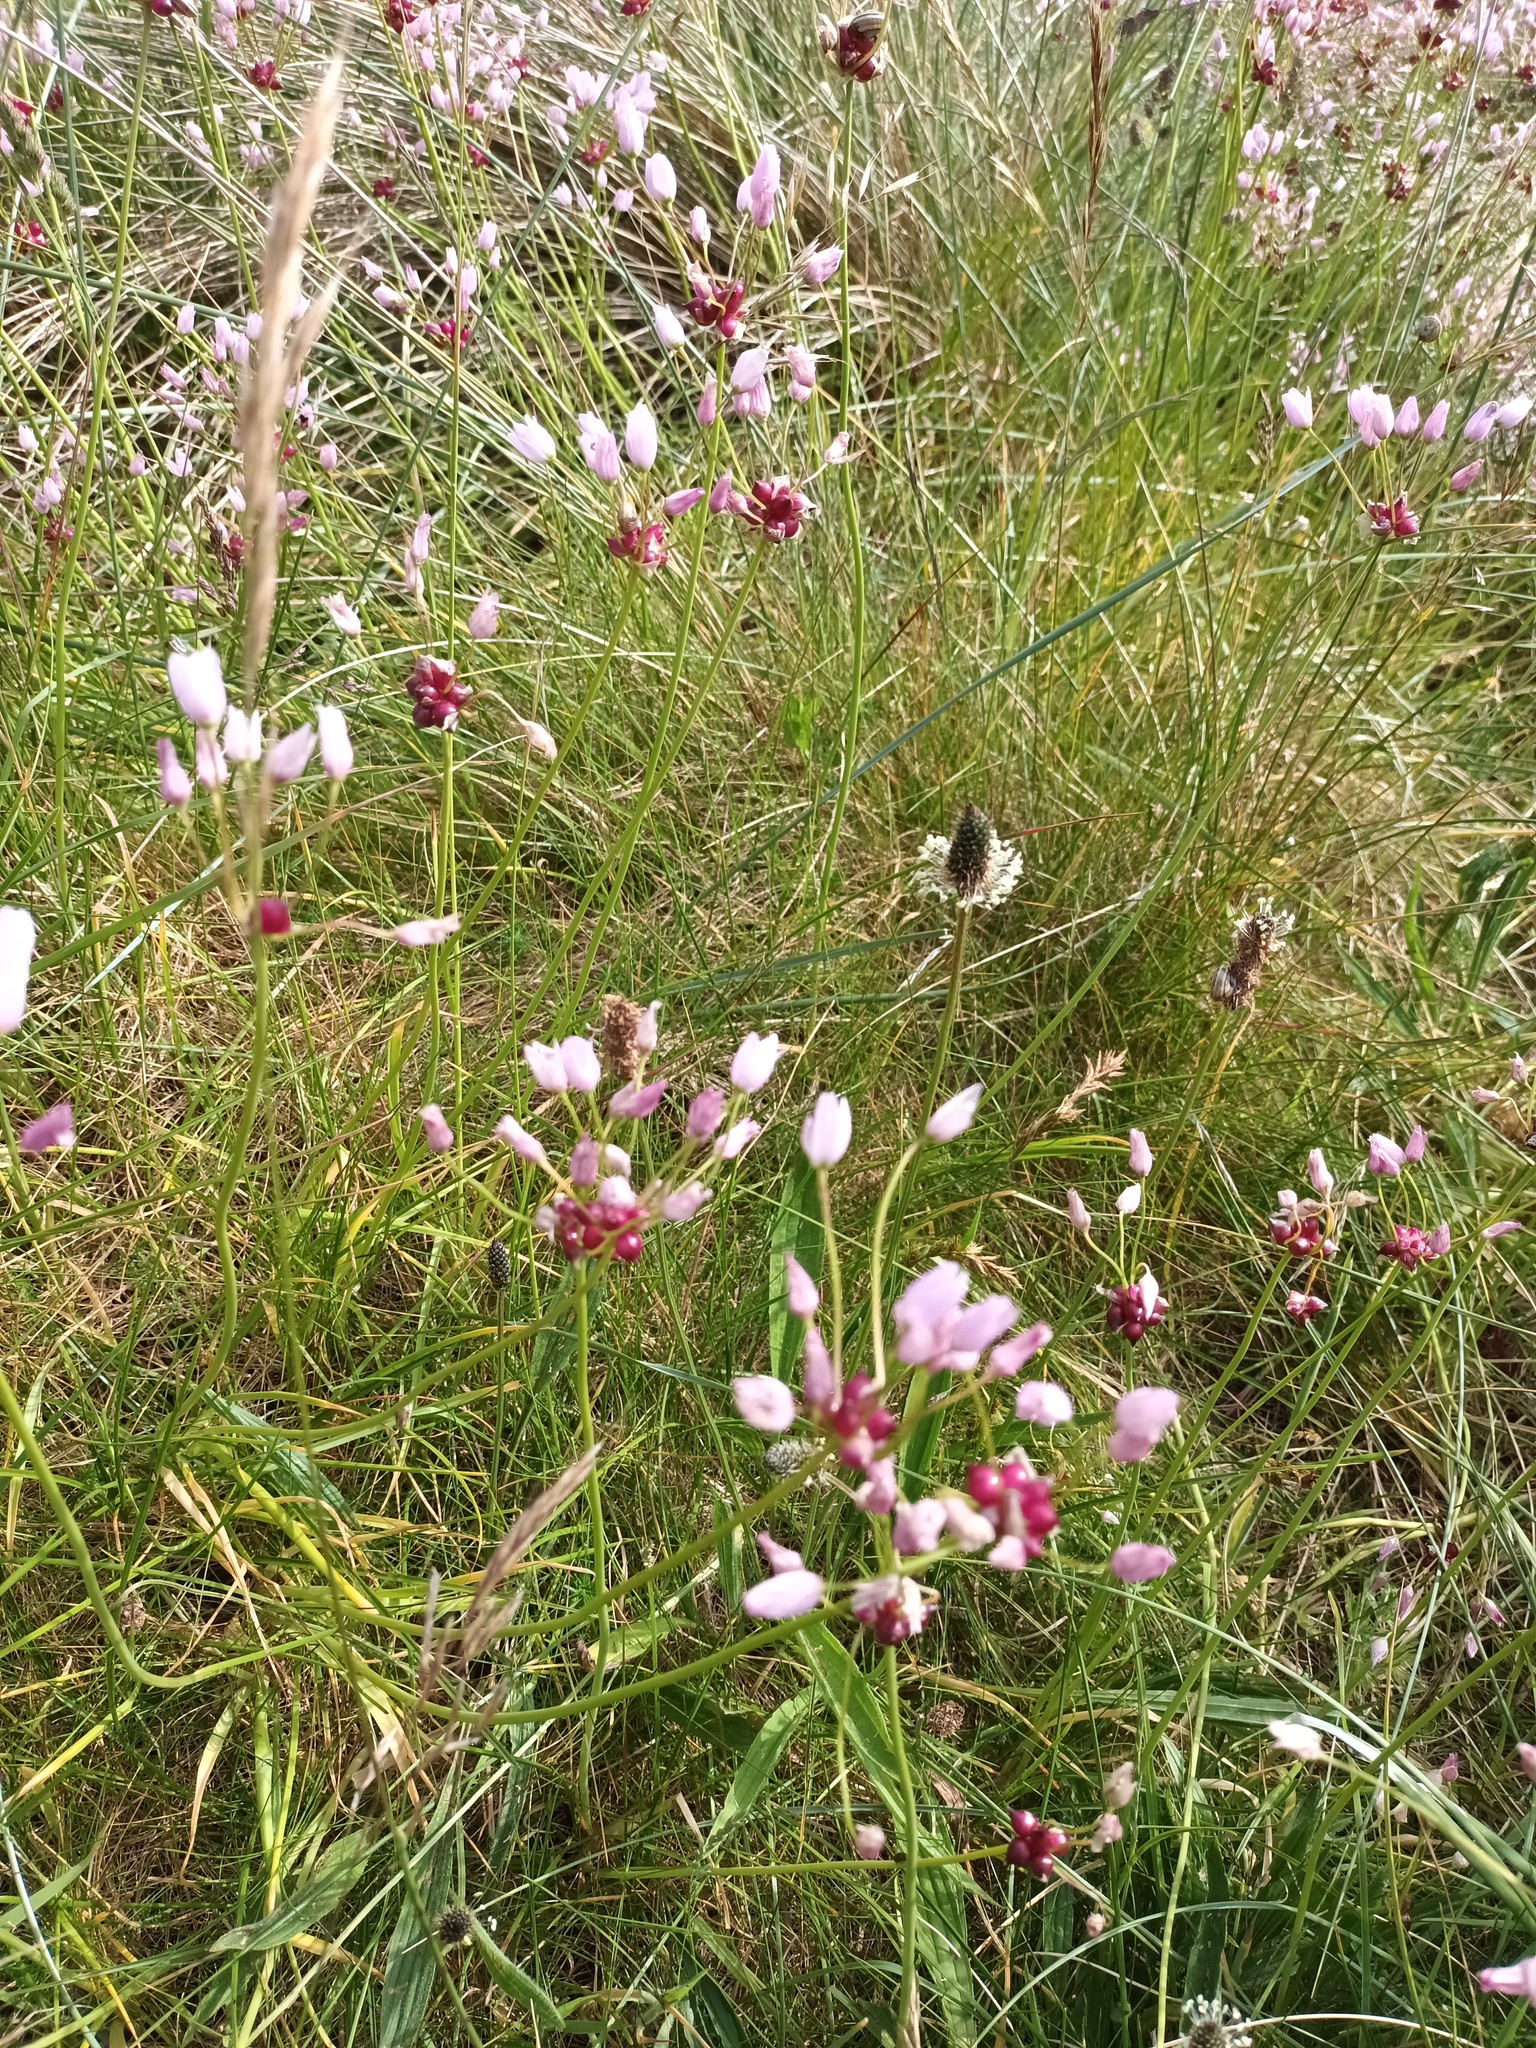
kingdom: Plantae
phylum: Tracheophyta
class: Liliopsida
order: Asparagales
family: Amaryllidaceae
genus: Allium
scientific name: Allium roseum
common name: Rosy garlic
